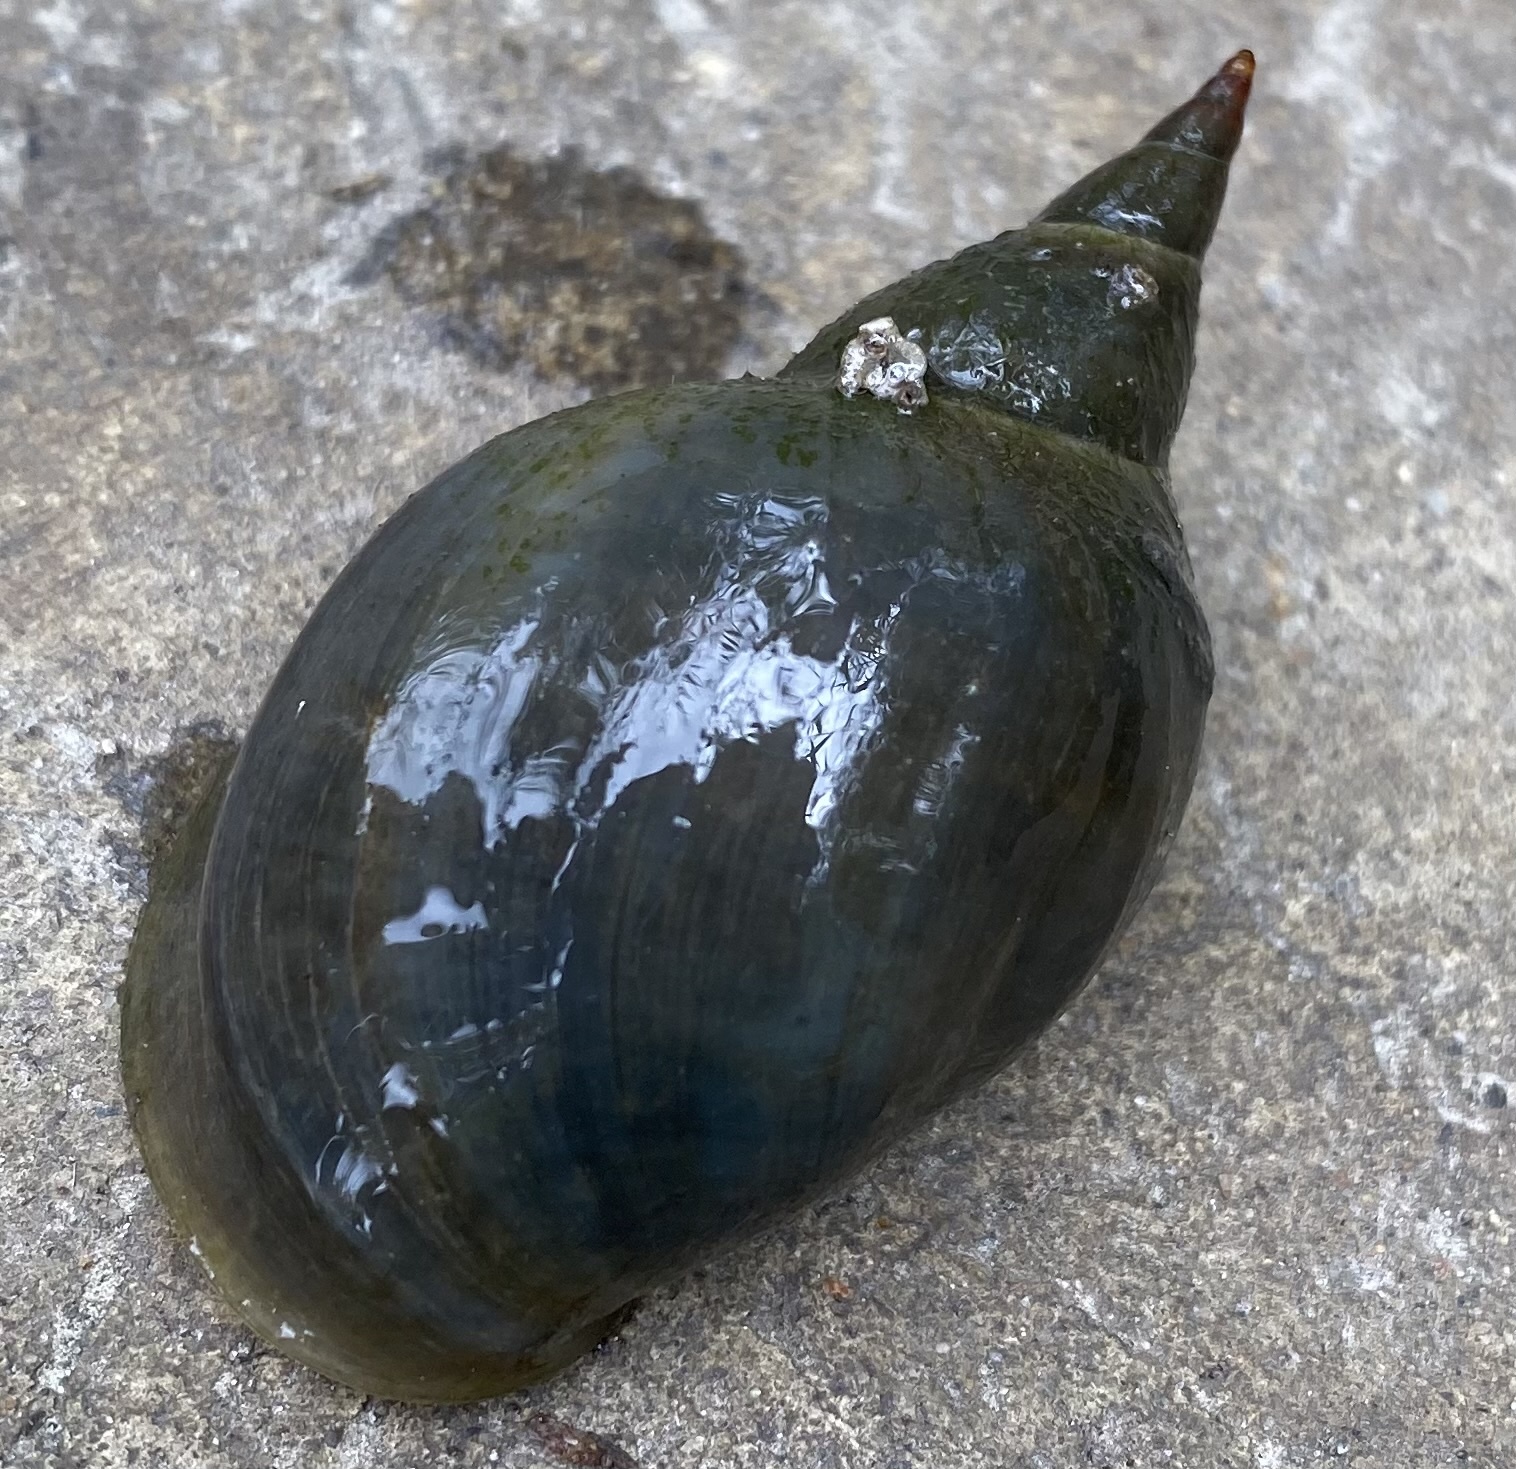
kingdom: Animalia
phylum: Mollusca
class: Gastropoda
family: Lymnaeidae
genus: Lymnaea
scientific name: Lymnaea stagnalis
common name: Great pond snail
